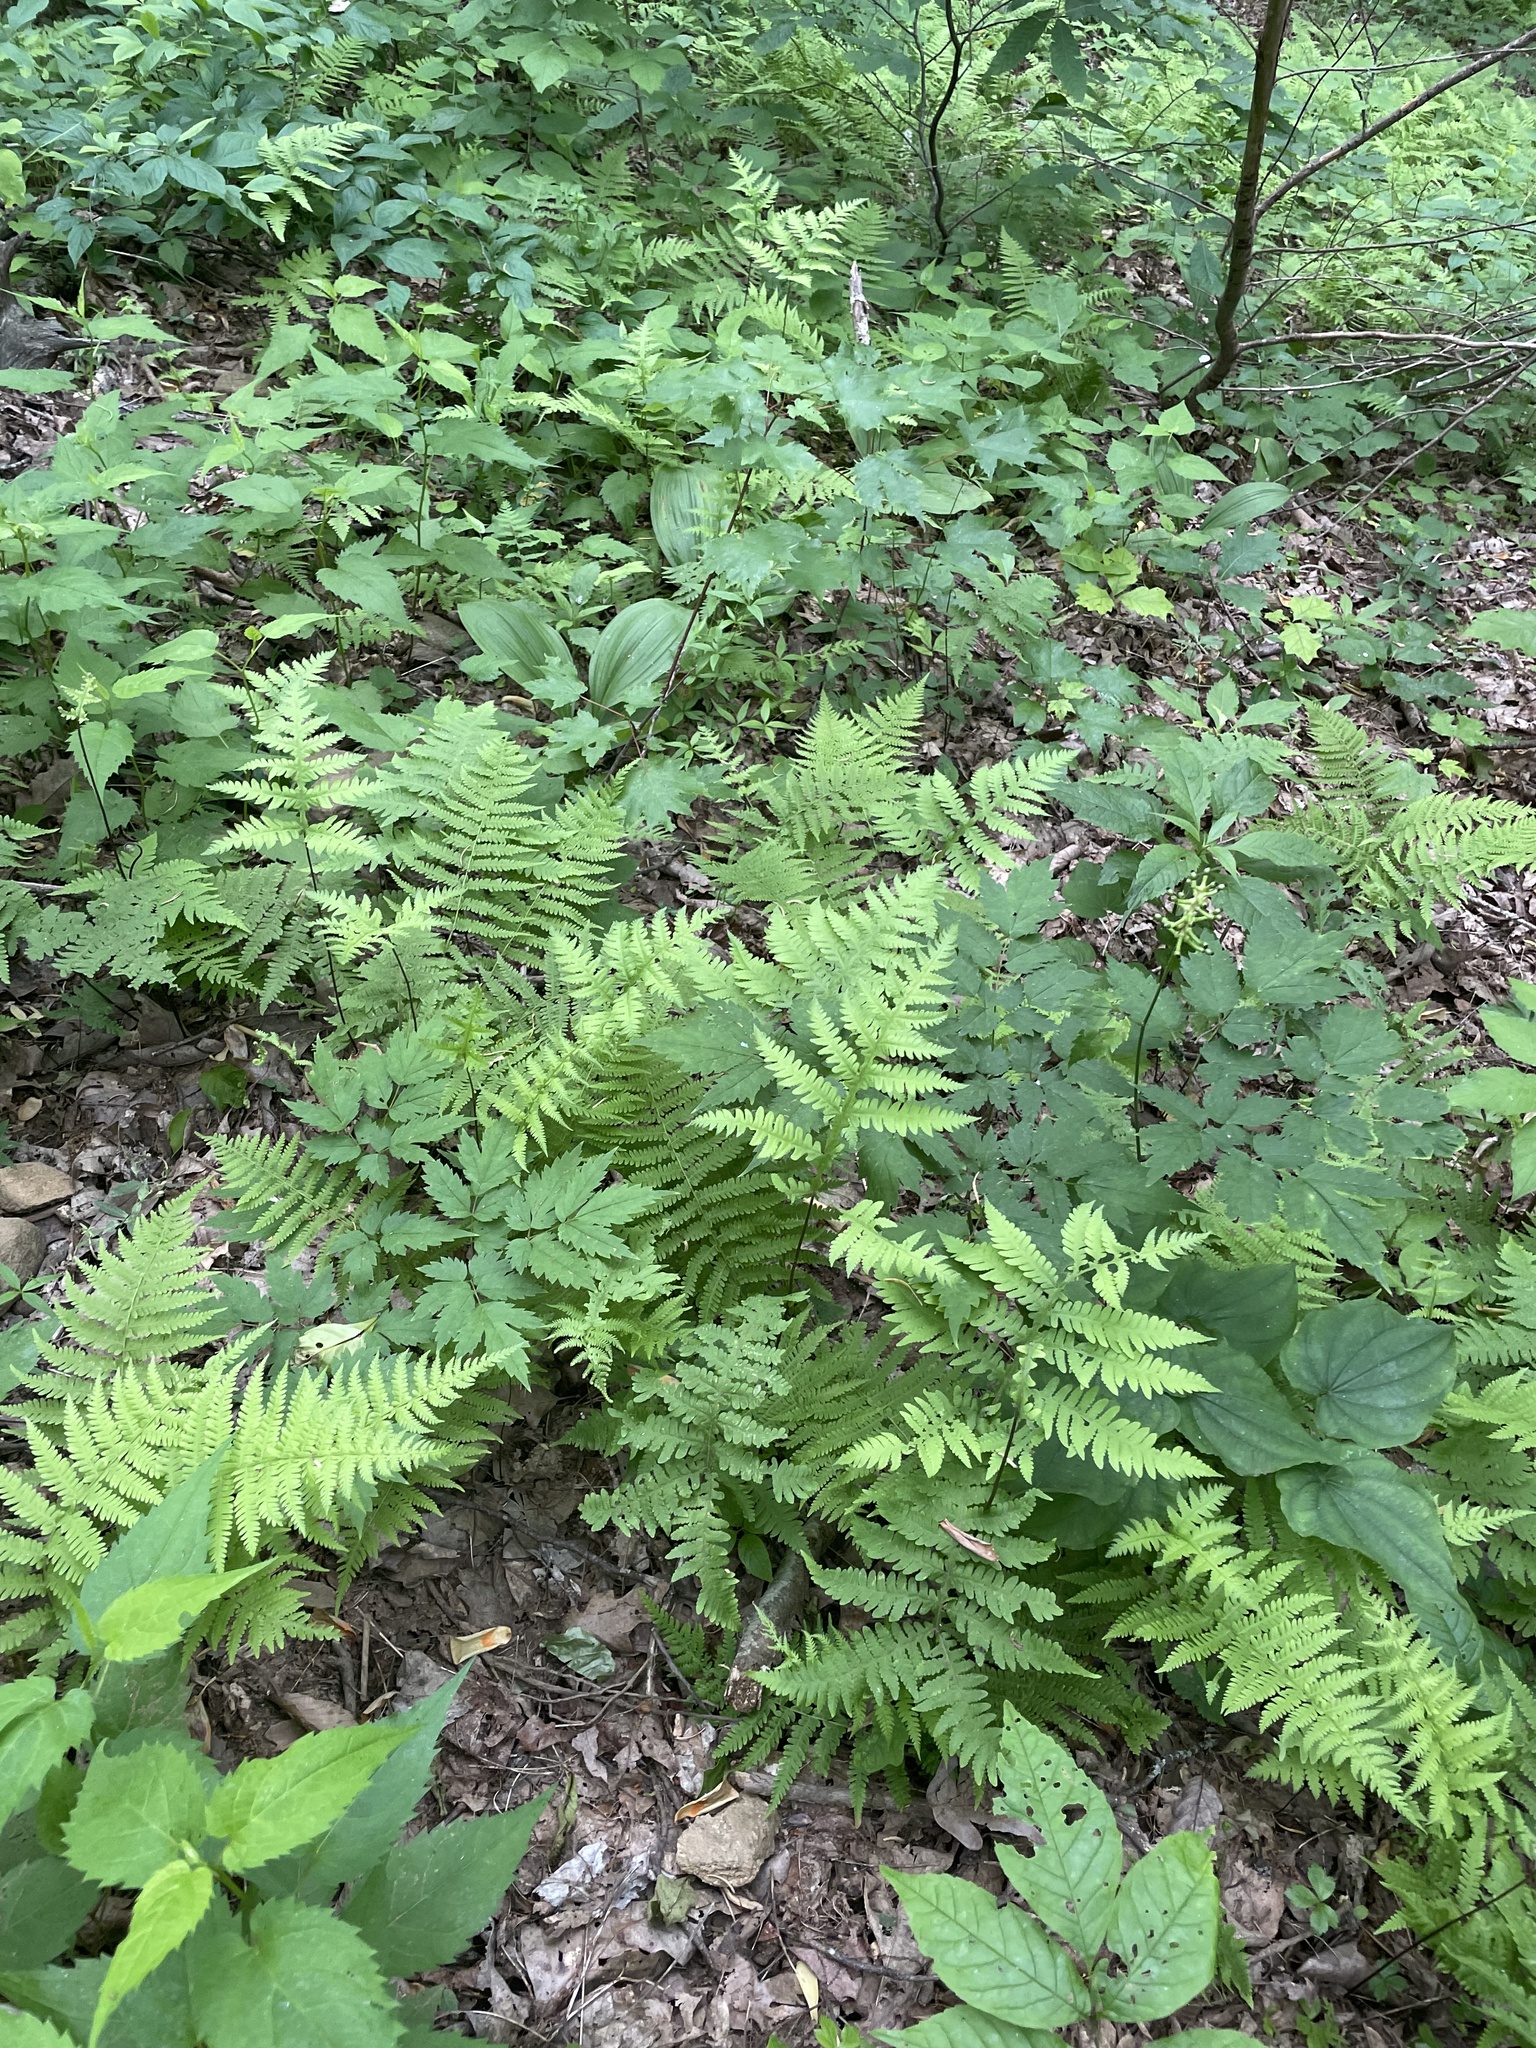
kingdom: Plantae
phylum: Tracheophyta
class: Polypodiopsida
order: Polypodiales
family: Thelypteridaceae
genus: Phegopteris
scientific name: Phegopteris hexagonoptera
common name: Broad beech fern
